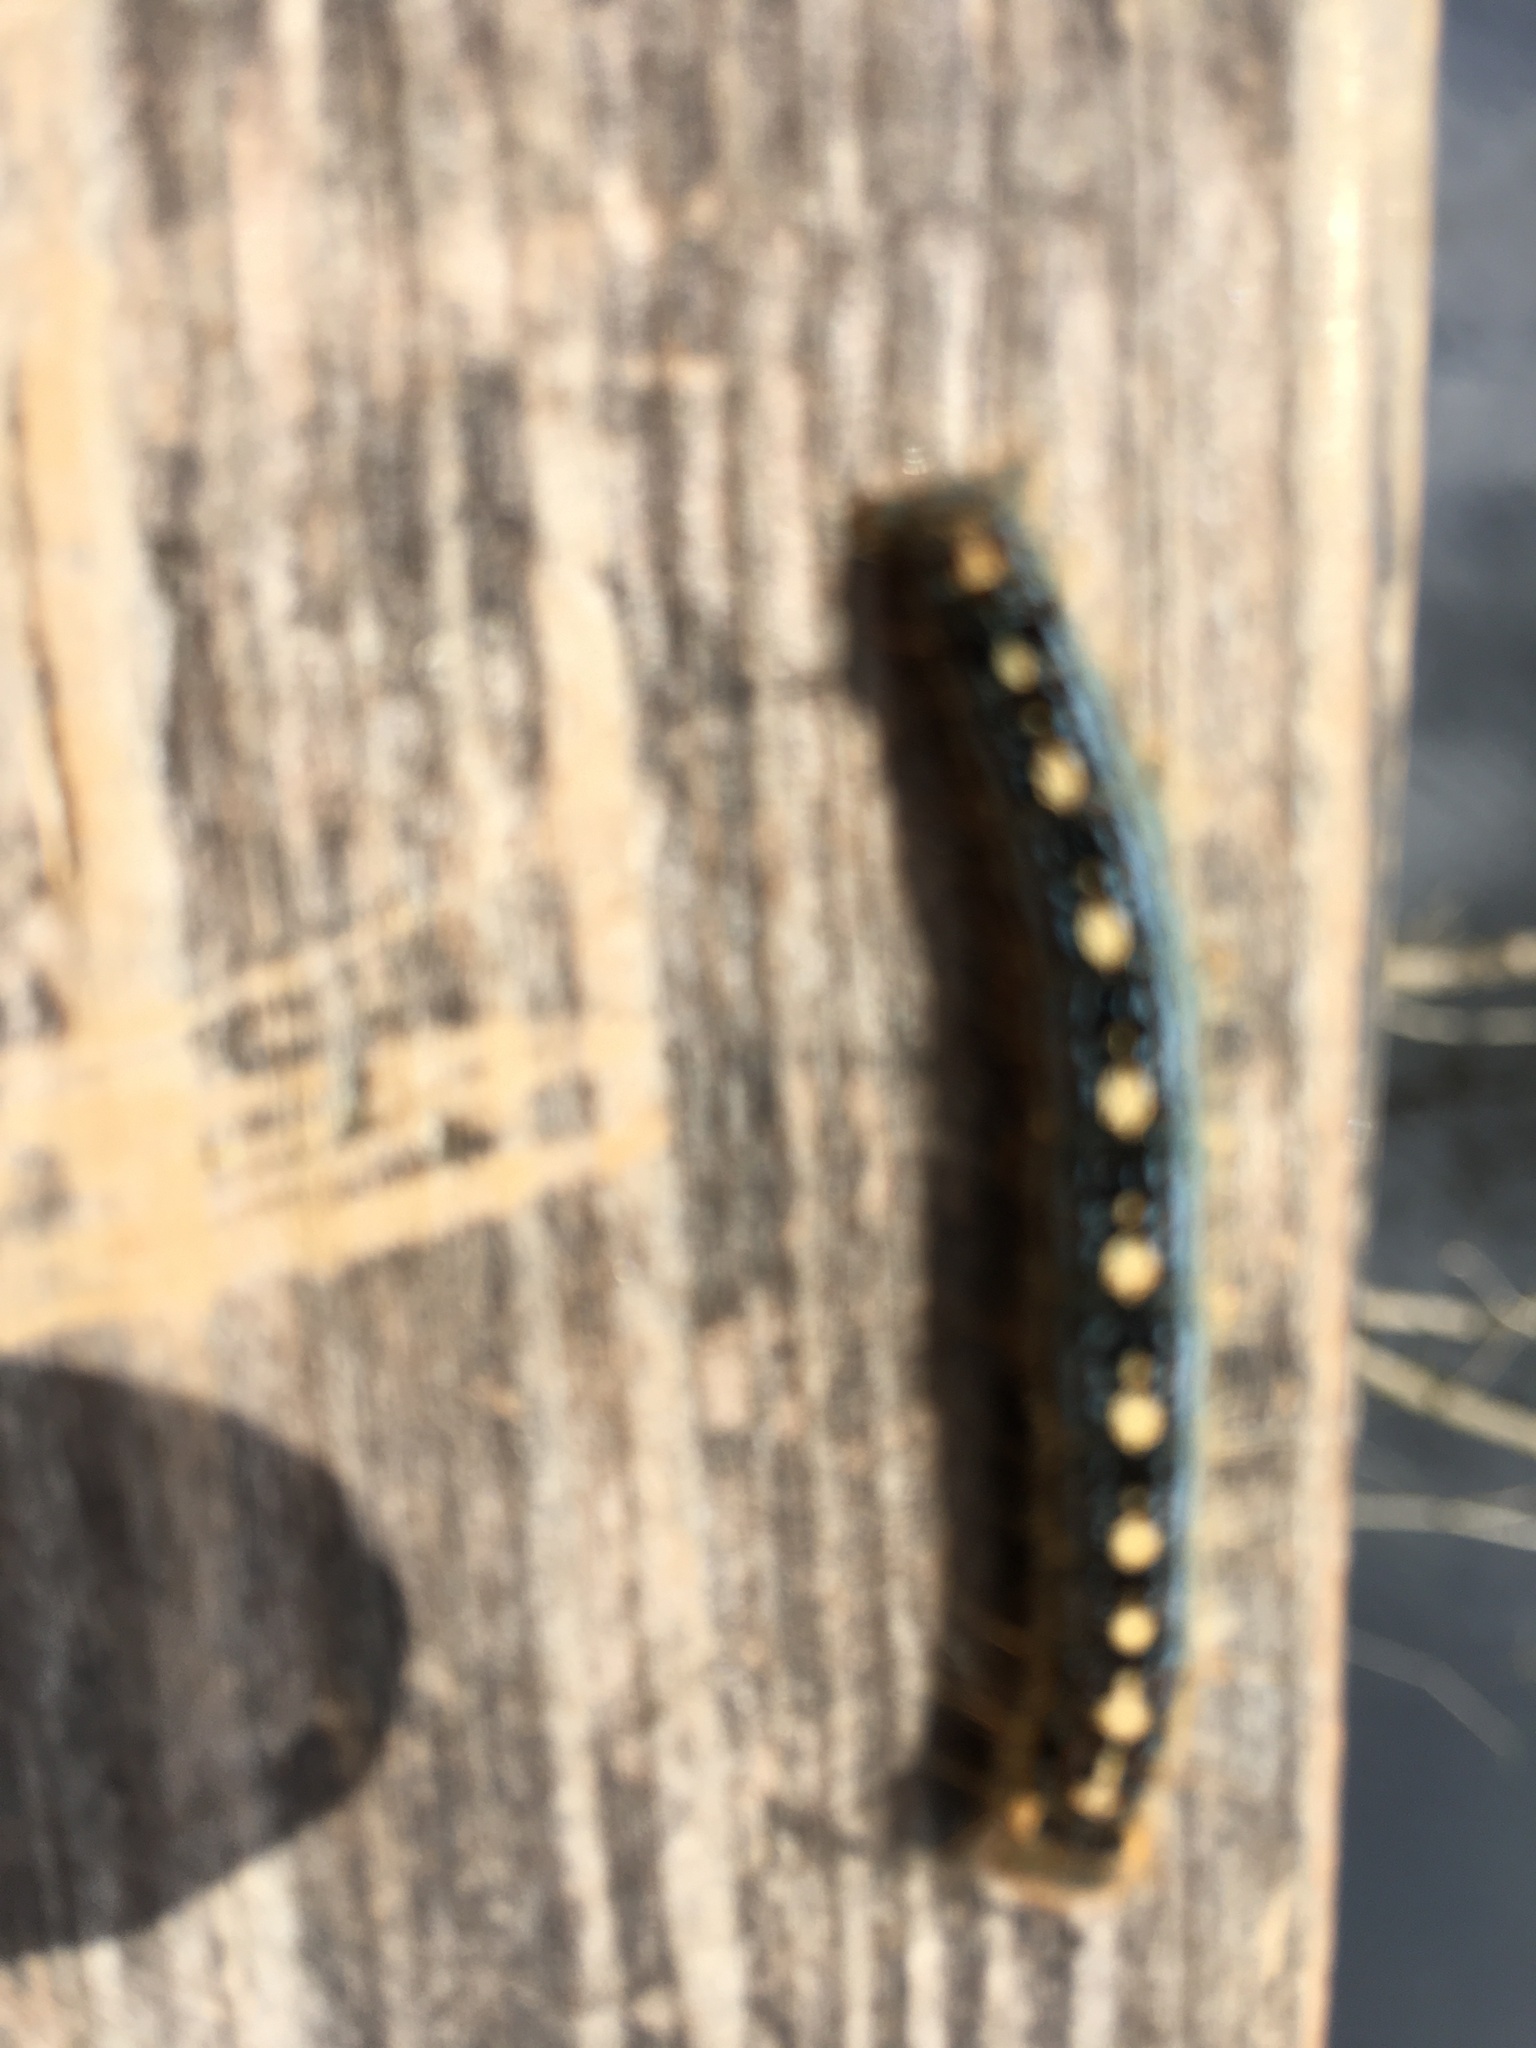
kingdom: Animalia
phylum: Arthropoda
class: Insecta
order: Lepidoptera
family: Lasiocampidae
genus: Malacosoma
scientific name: Malacosoma disstria
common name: Forest tent caterpillar
